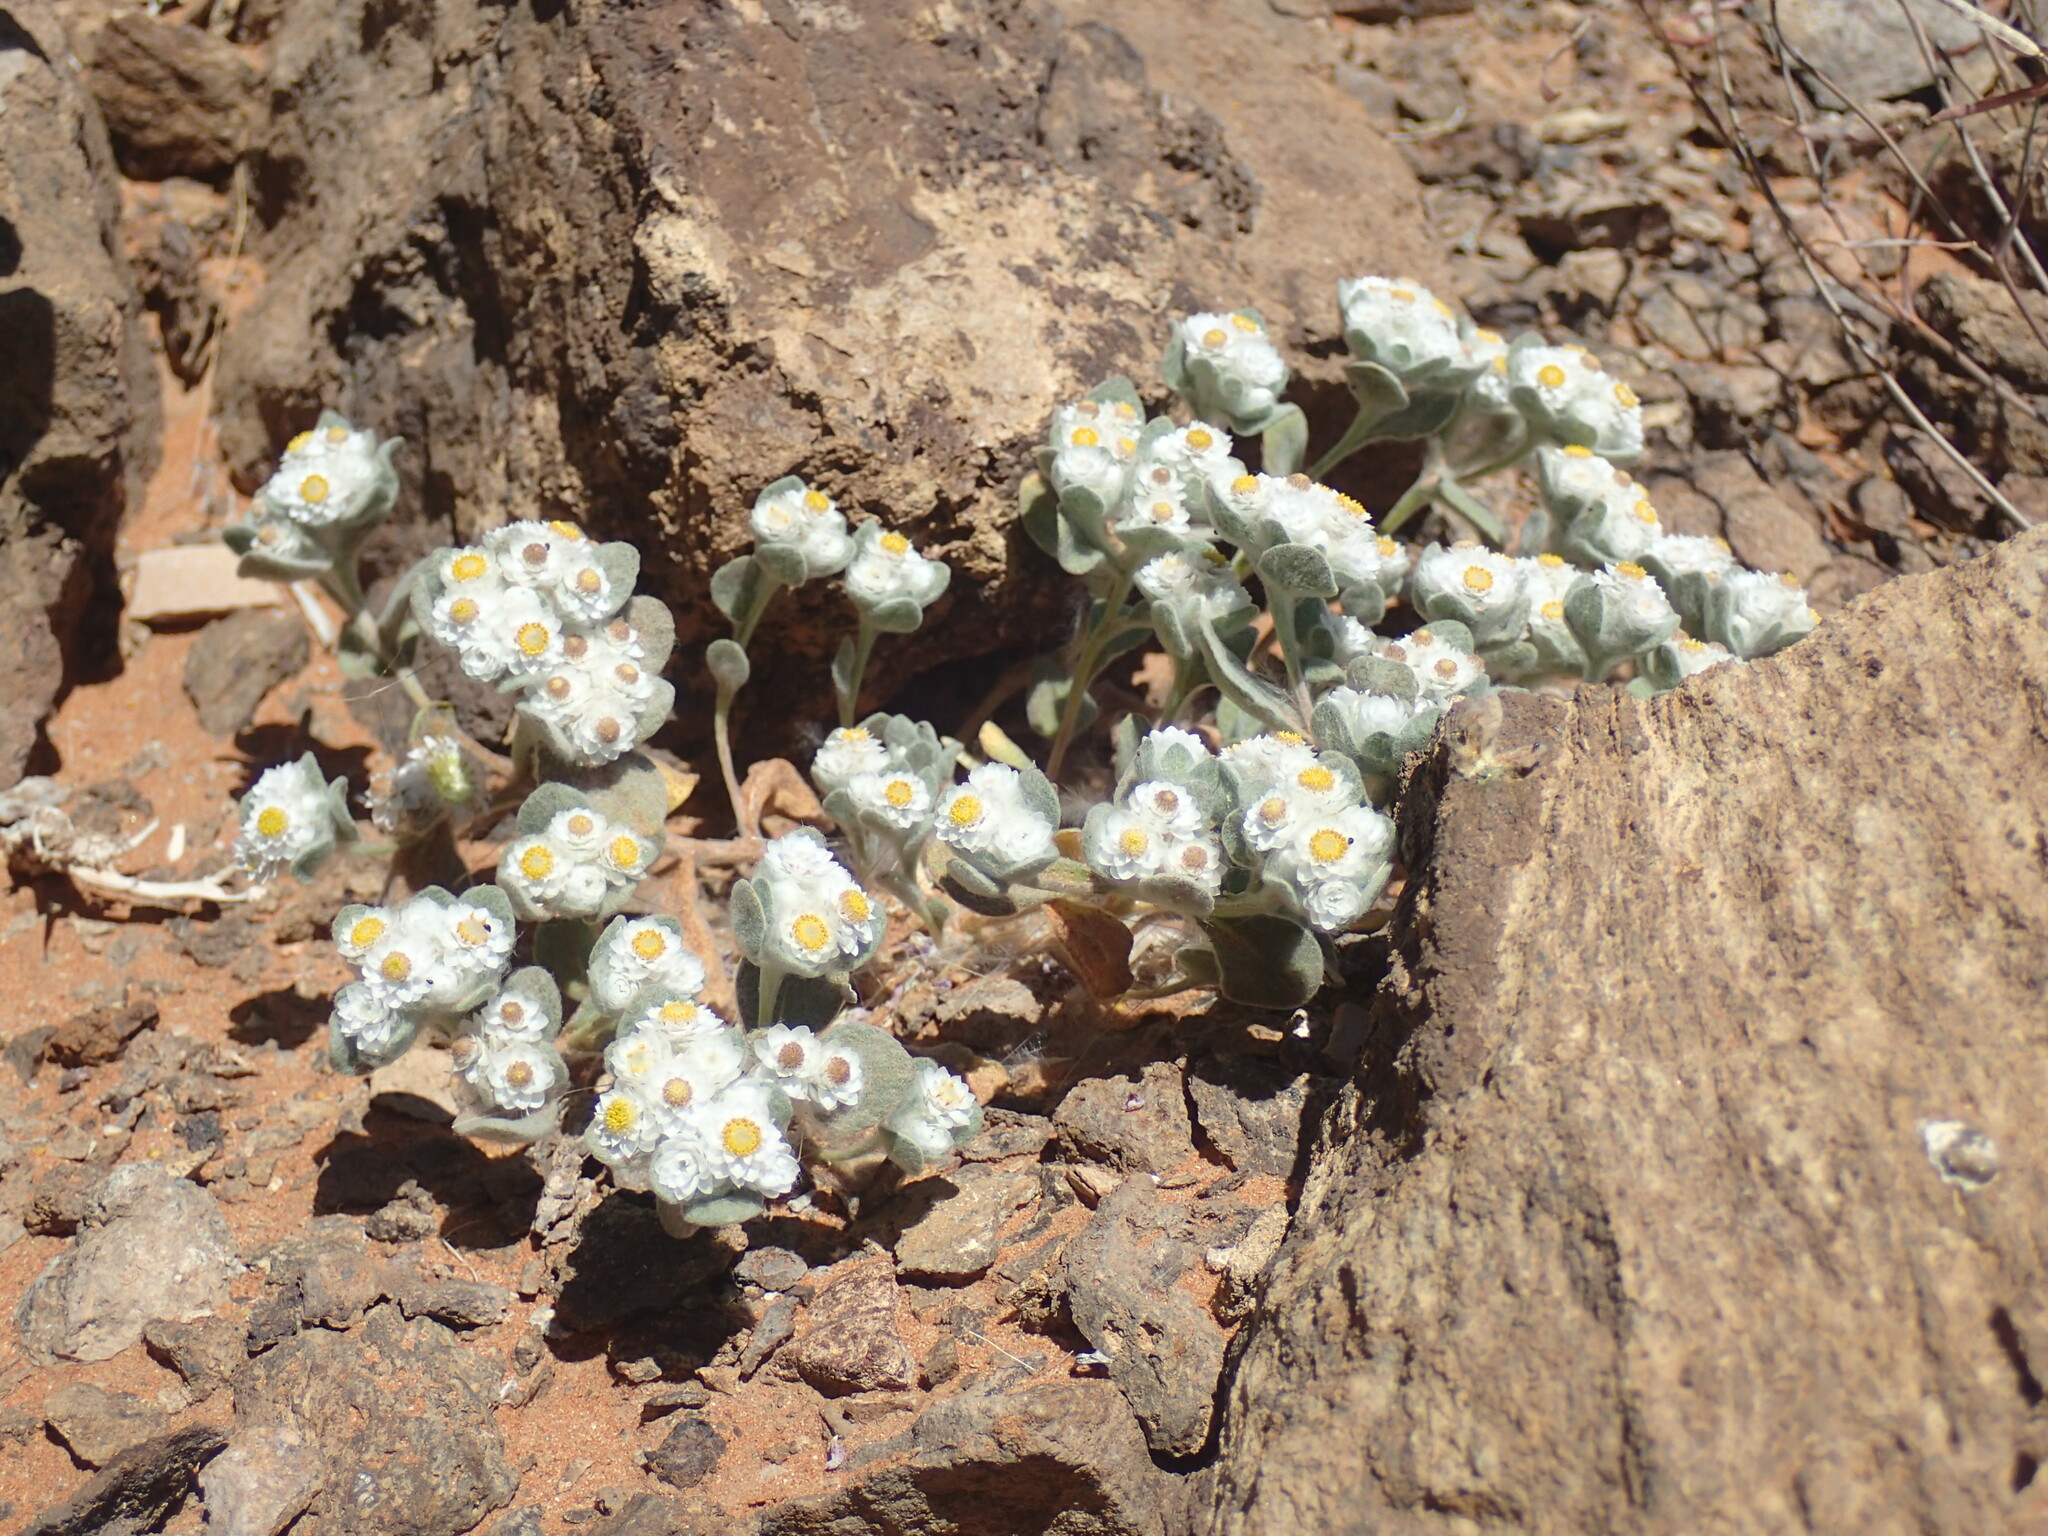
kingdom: Plantae
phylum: Tracheophyta
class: Magnoliopsida
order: Asterales
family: Asteraceae
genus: Helichrysum
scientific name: Helichrysum gariepinum
